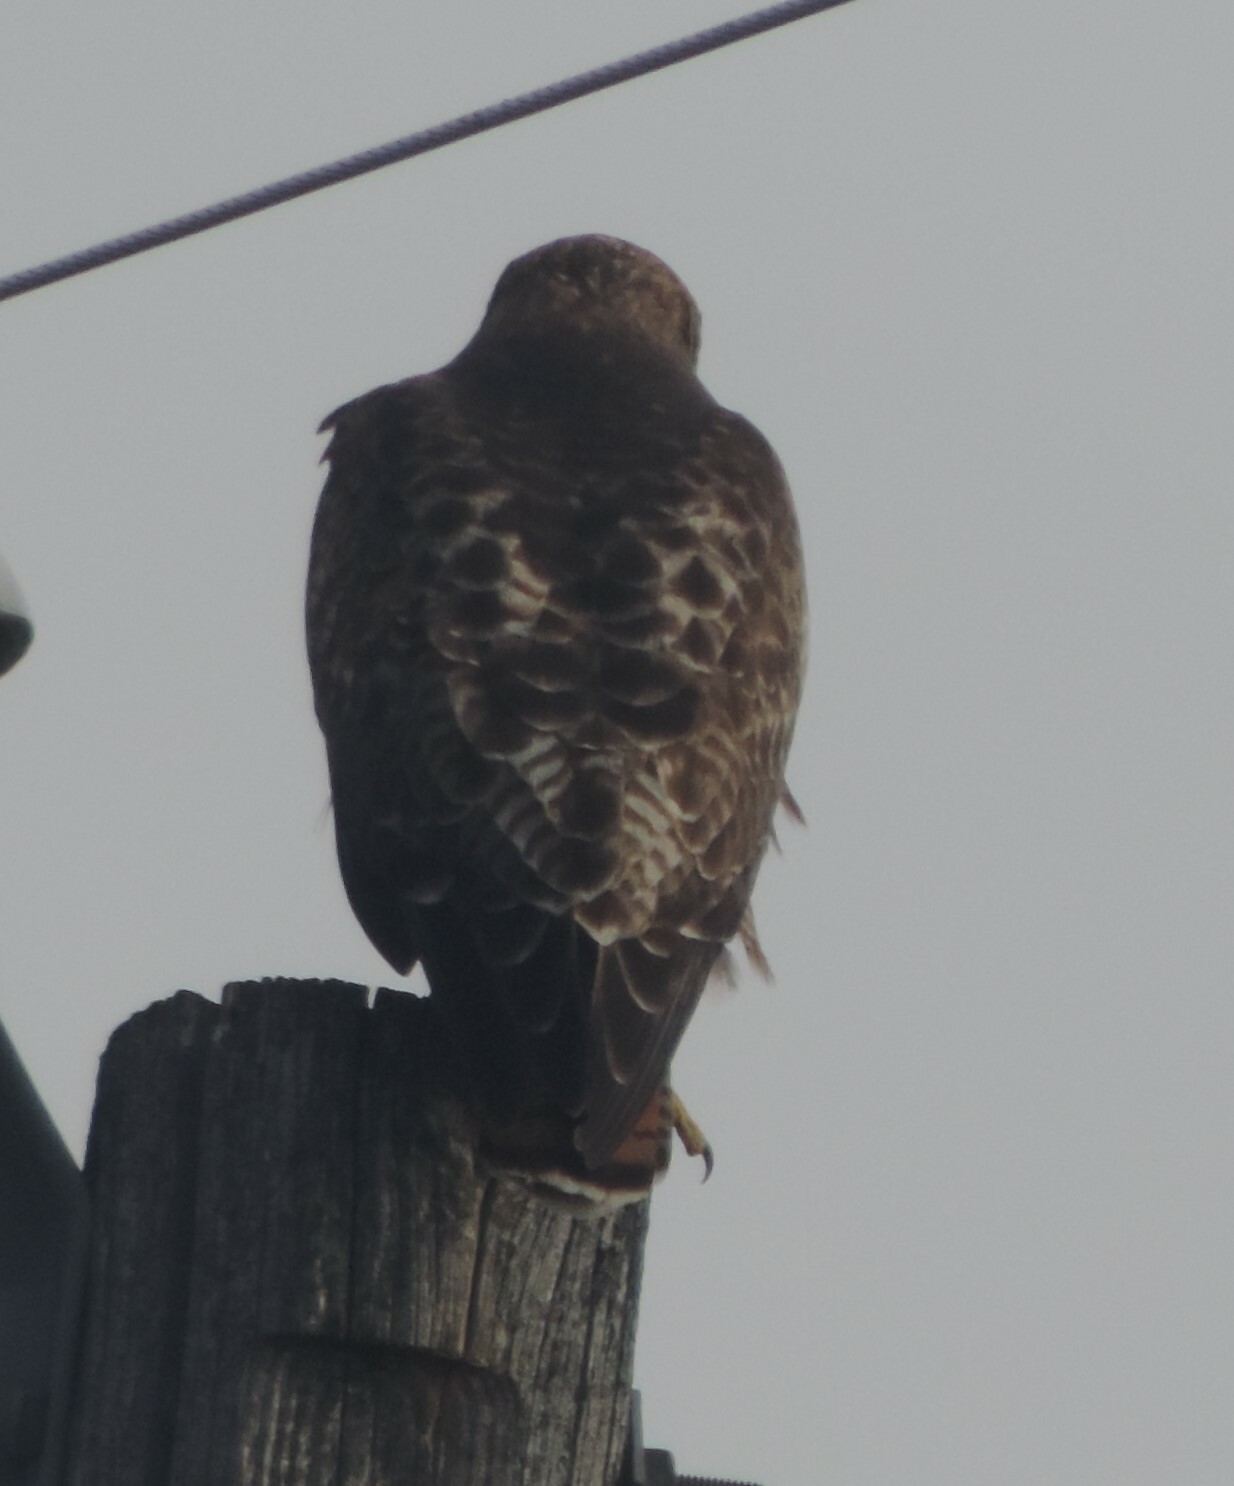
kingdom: Animalia
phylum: Chordata
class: Aves
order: Accipitriformes
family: Accipitridae
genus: Buteo
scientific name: Buteo jamaicensis
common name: Red-tailed hawk
